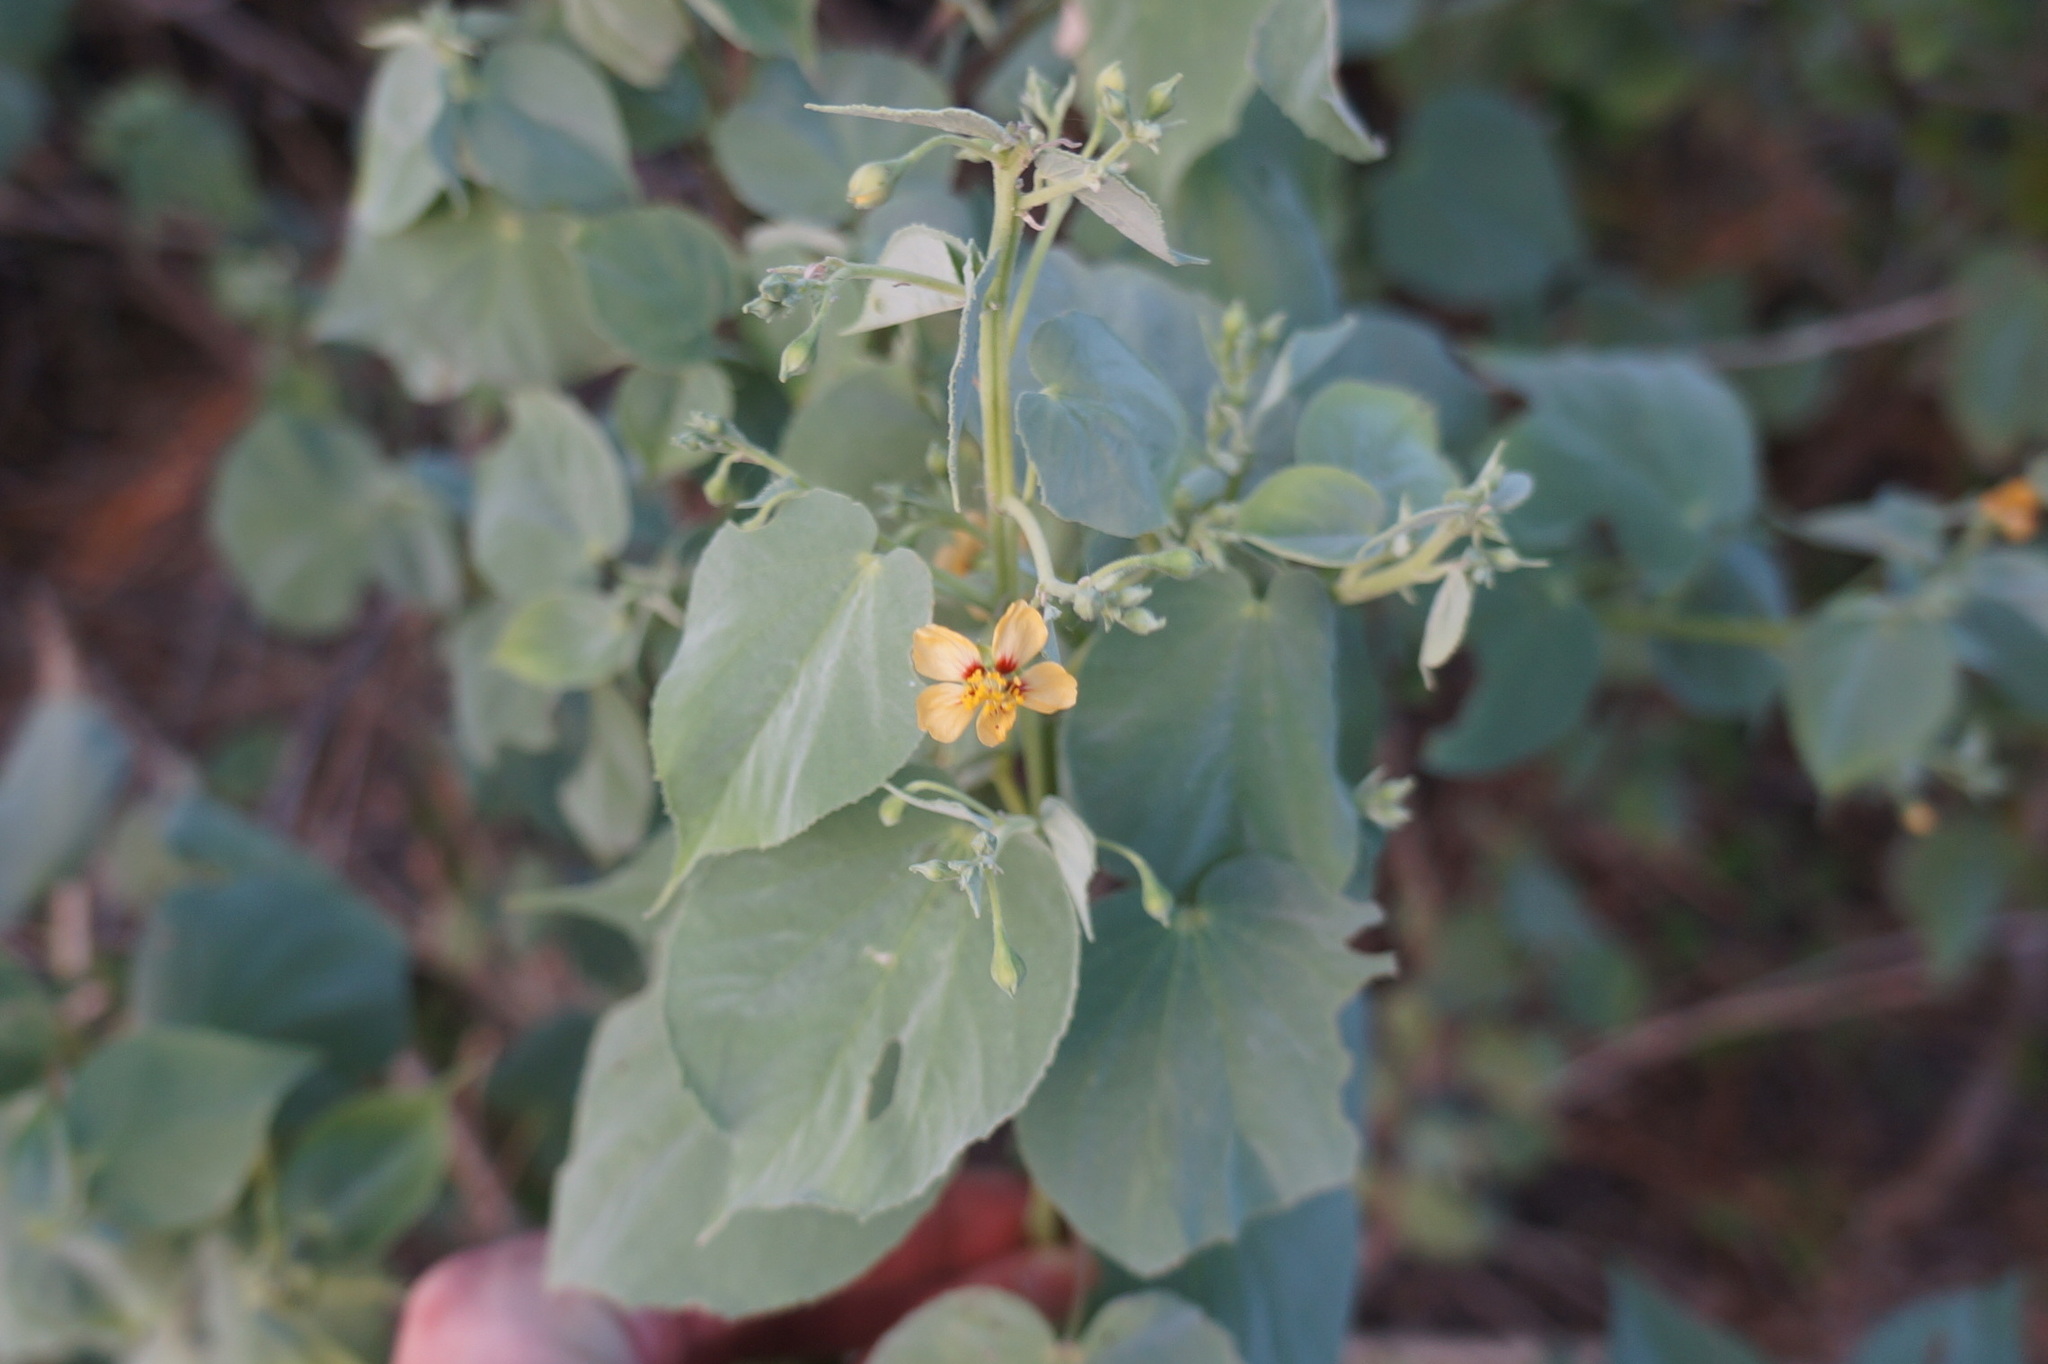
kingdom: Plantae
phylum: Tracheophyta
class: Magnoliopsida
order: Malvales
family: Malvaceae
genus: Abutilon
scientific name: Abutilon trisulcatum
